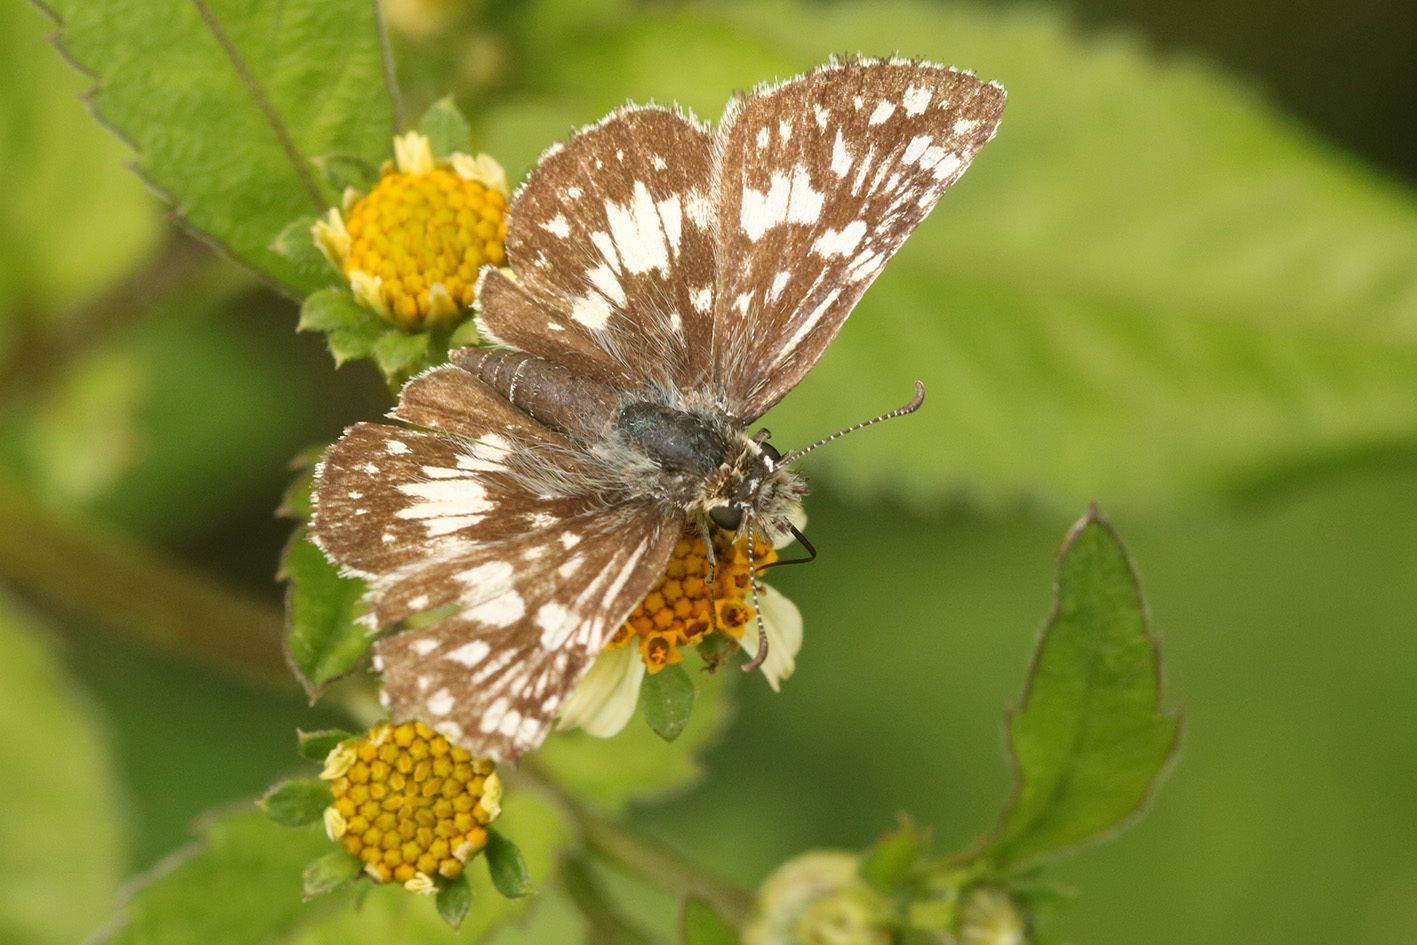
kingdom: Animalia
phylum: Arthropoda
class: Insecta
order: Lepidoptera
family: Hesperiidae
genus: Burnsius
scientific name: Burnsius orcynoides
